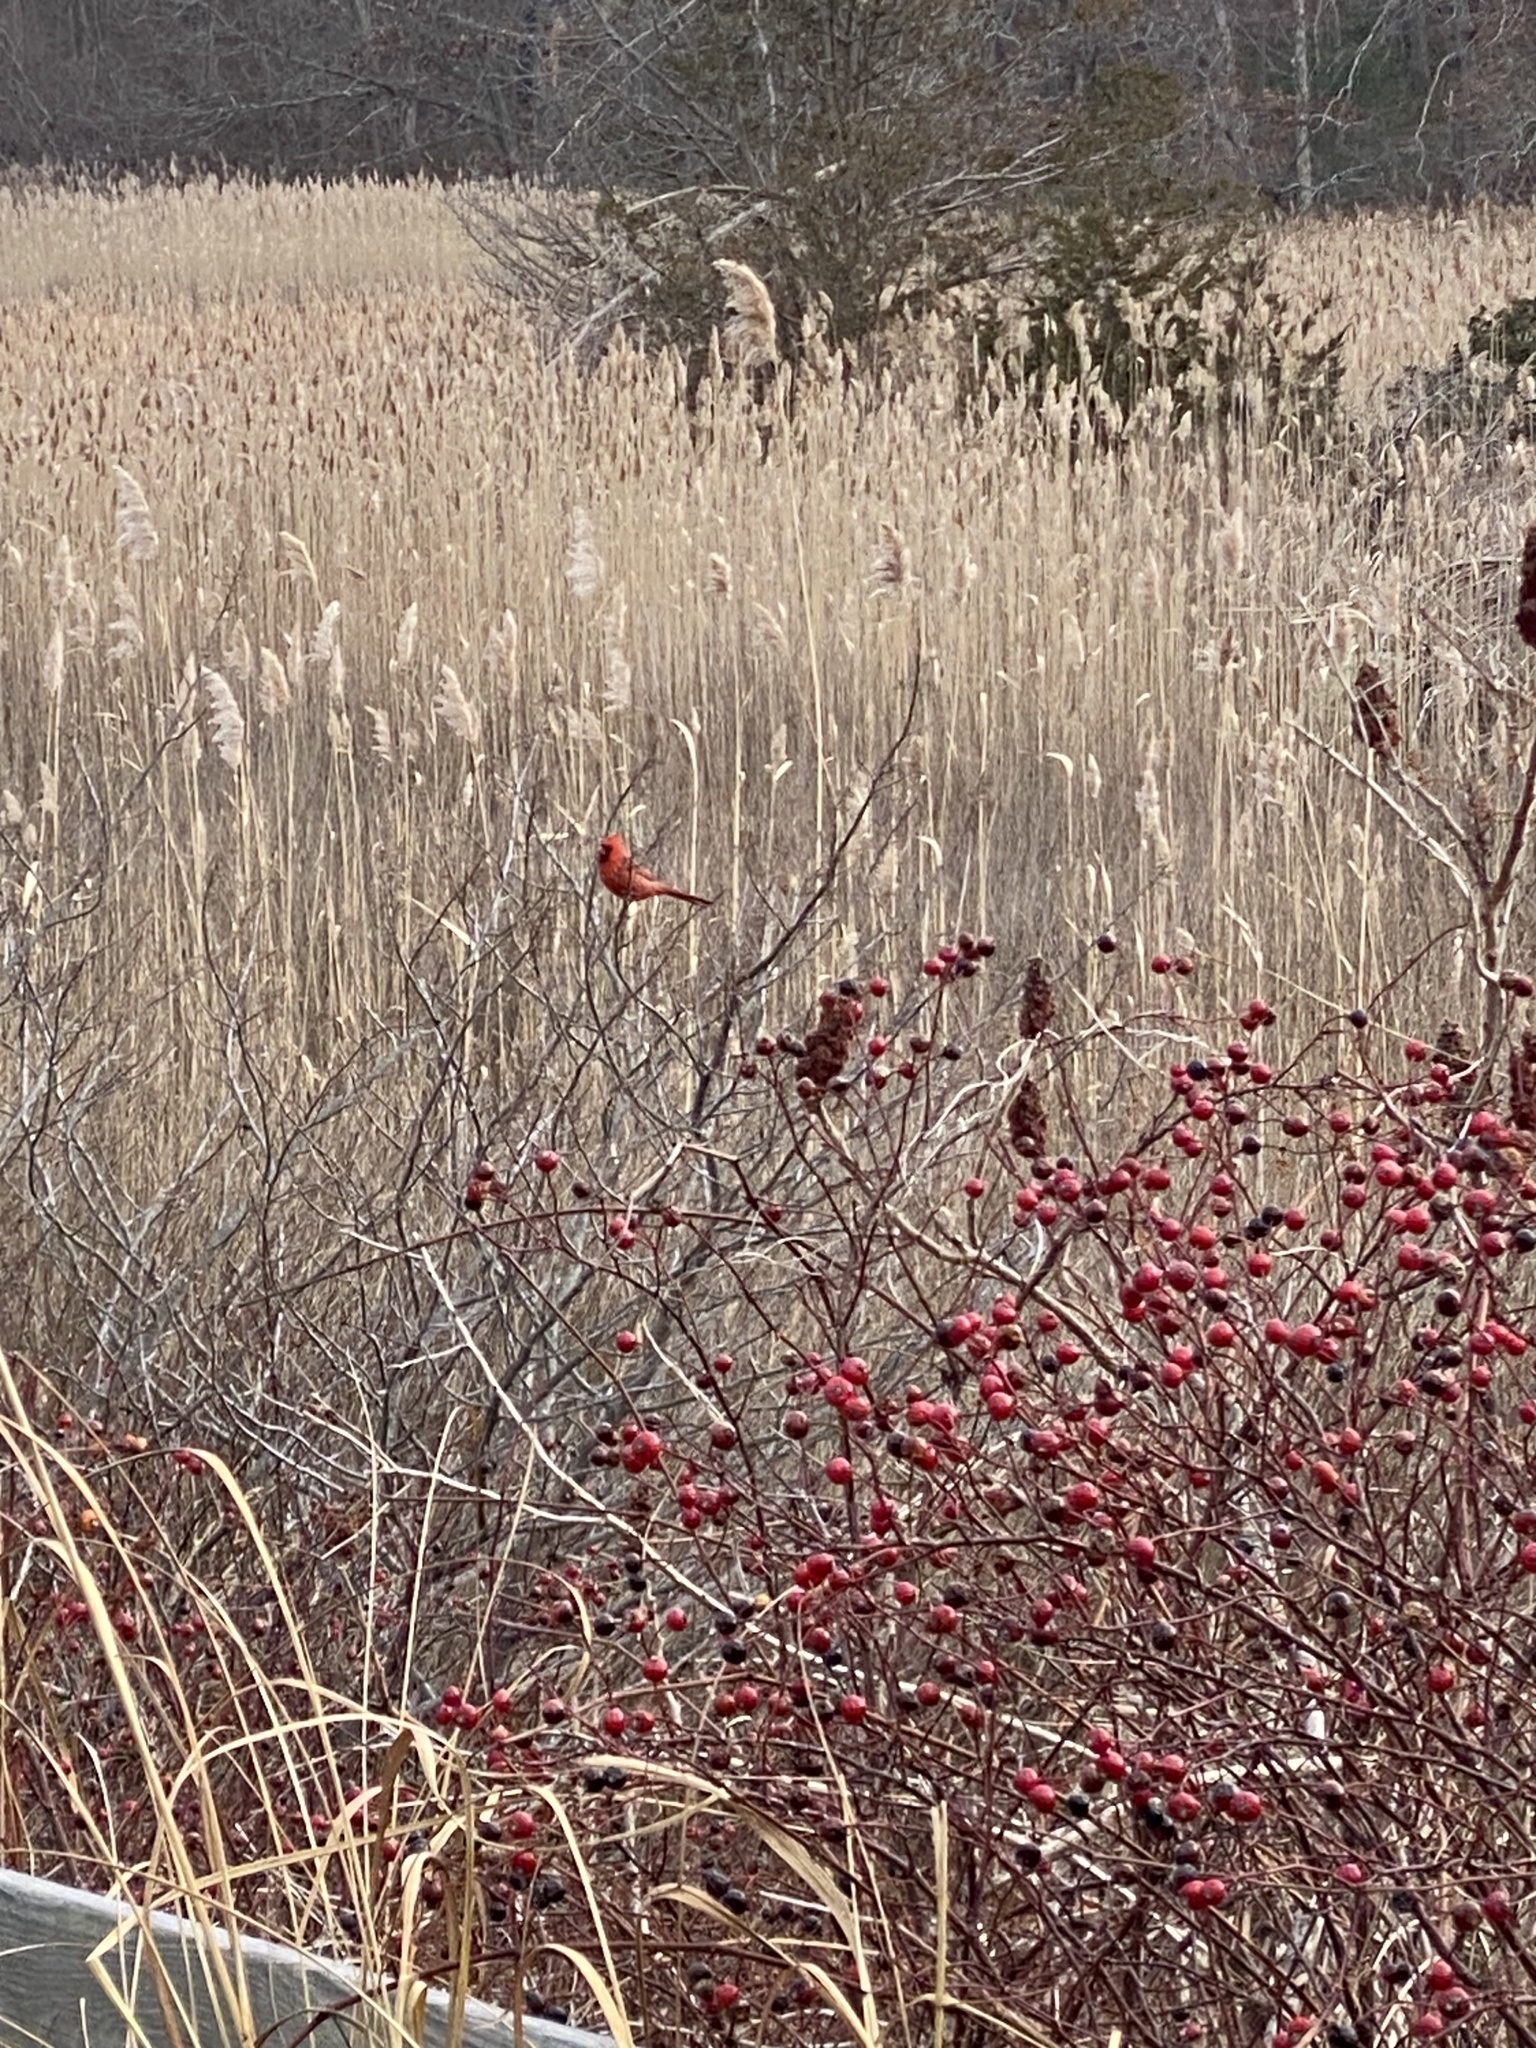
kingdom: Animalia
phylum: Chordata
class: Aves
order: Passeriformes
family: Cardinalidae
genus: Cardinalis
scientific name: Cardinalis cardinalis
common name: Northern cardinal
